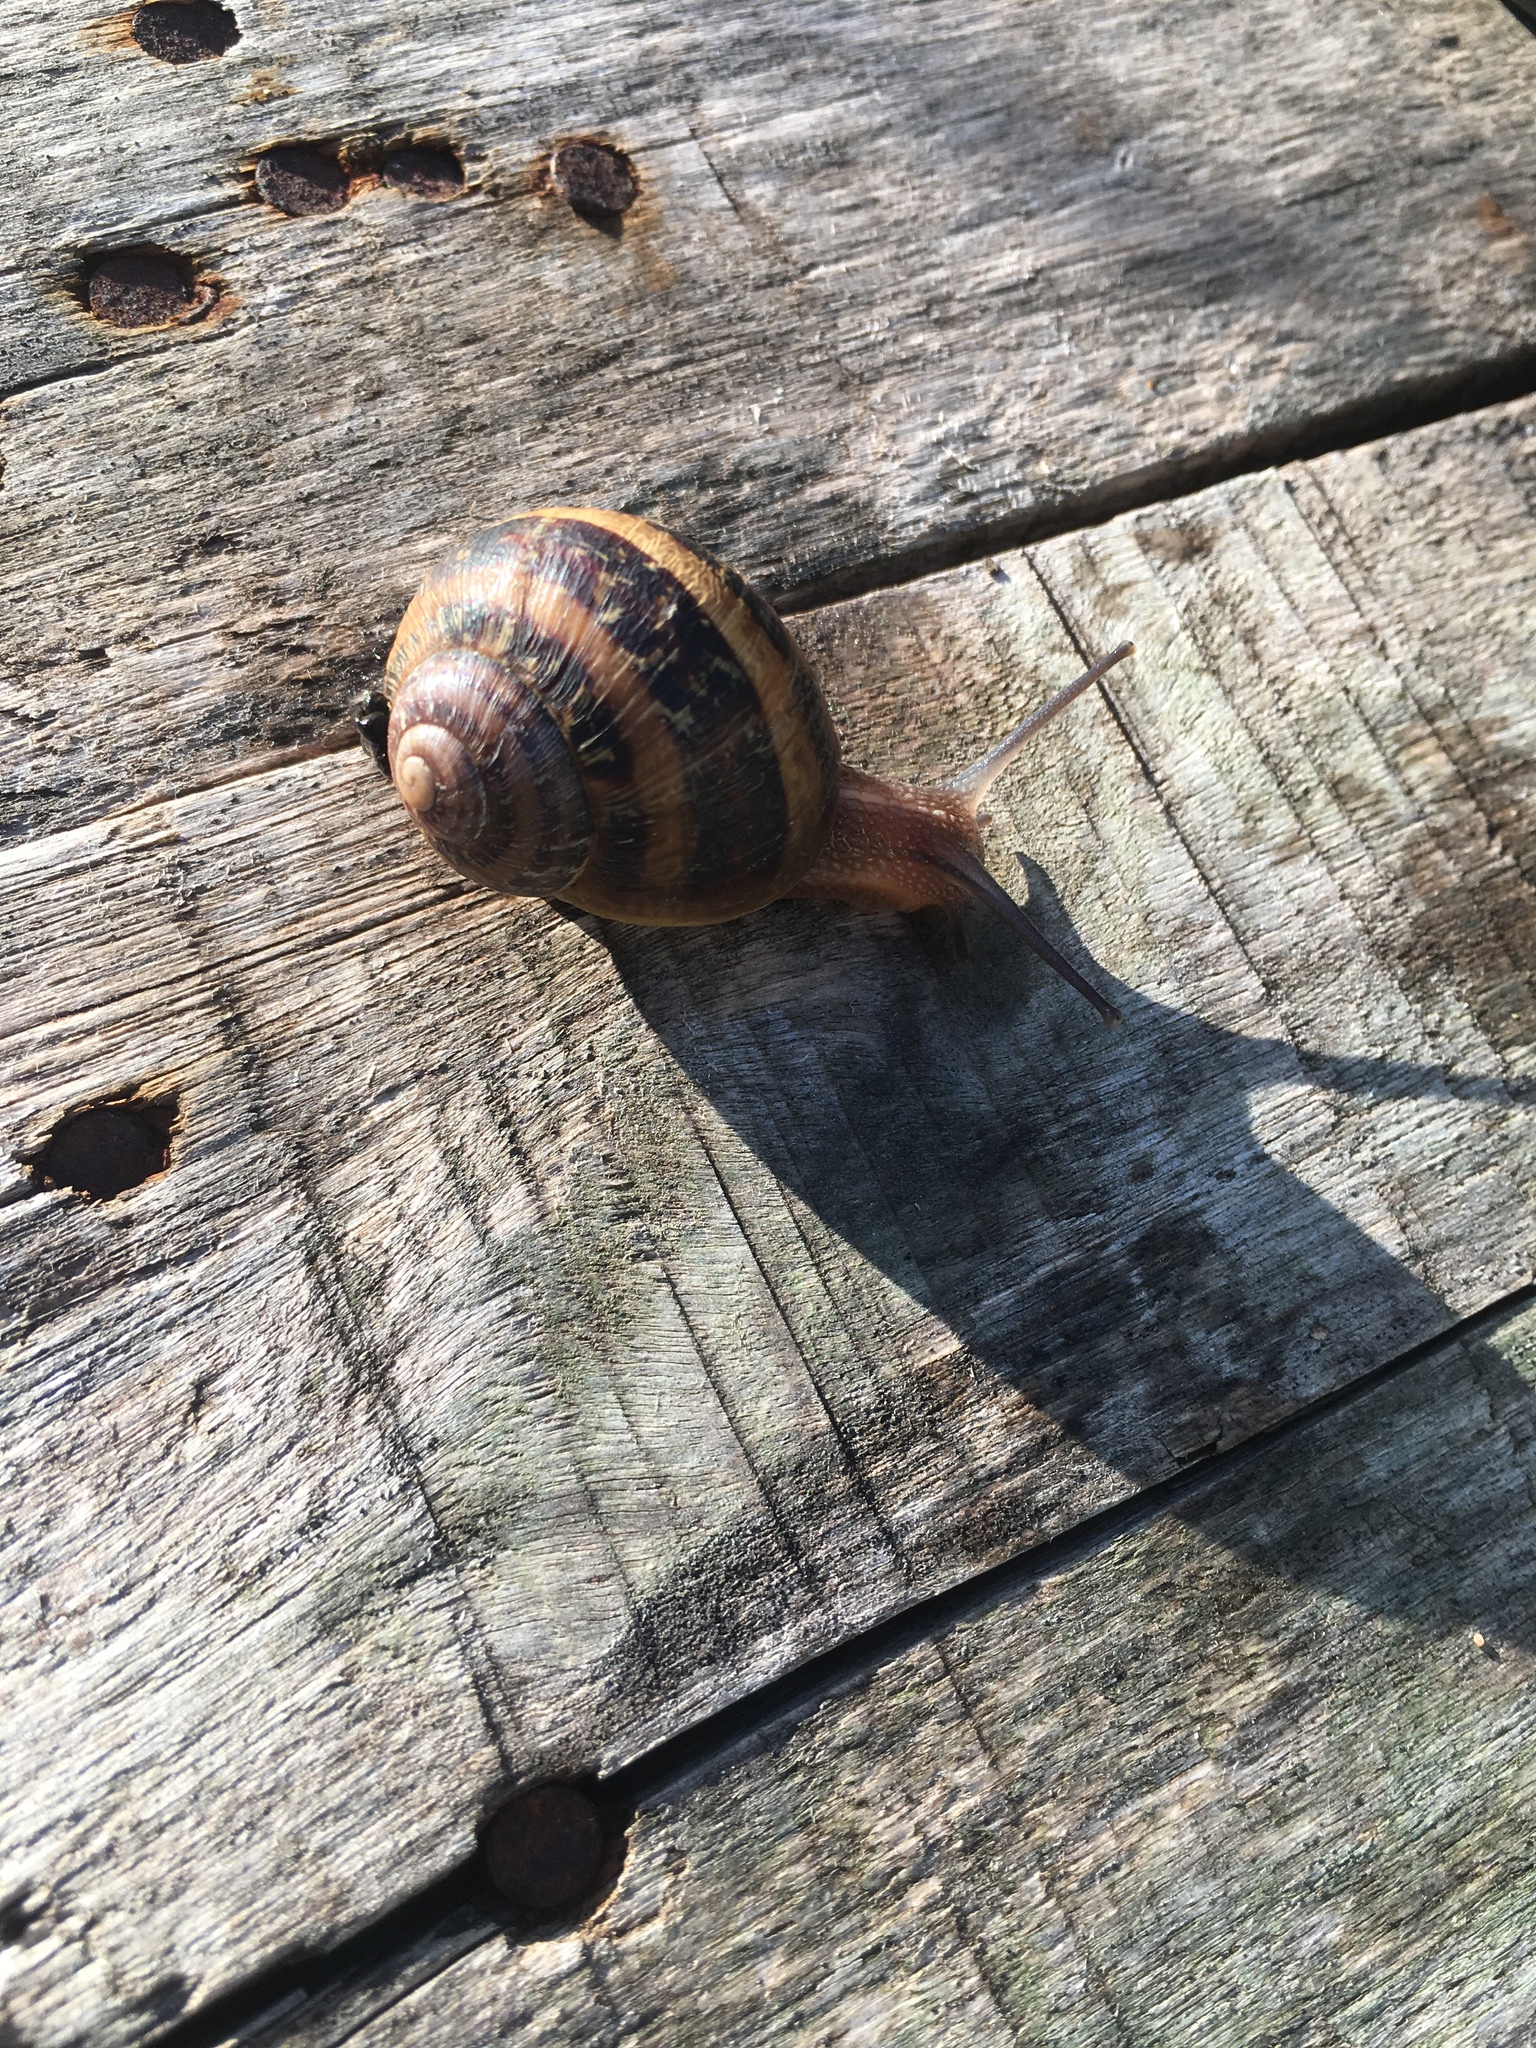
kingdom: Animalia
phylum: Mollusca
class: Gastropoda
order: Stylommatophora
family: Helicidae
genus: Cornu
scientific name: Cornu aspersum
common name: Brown garden snail
